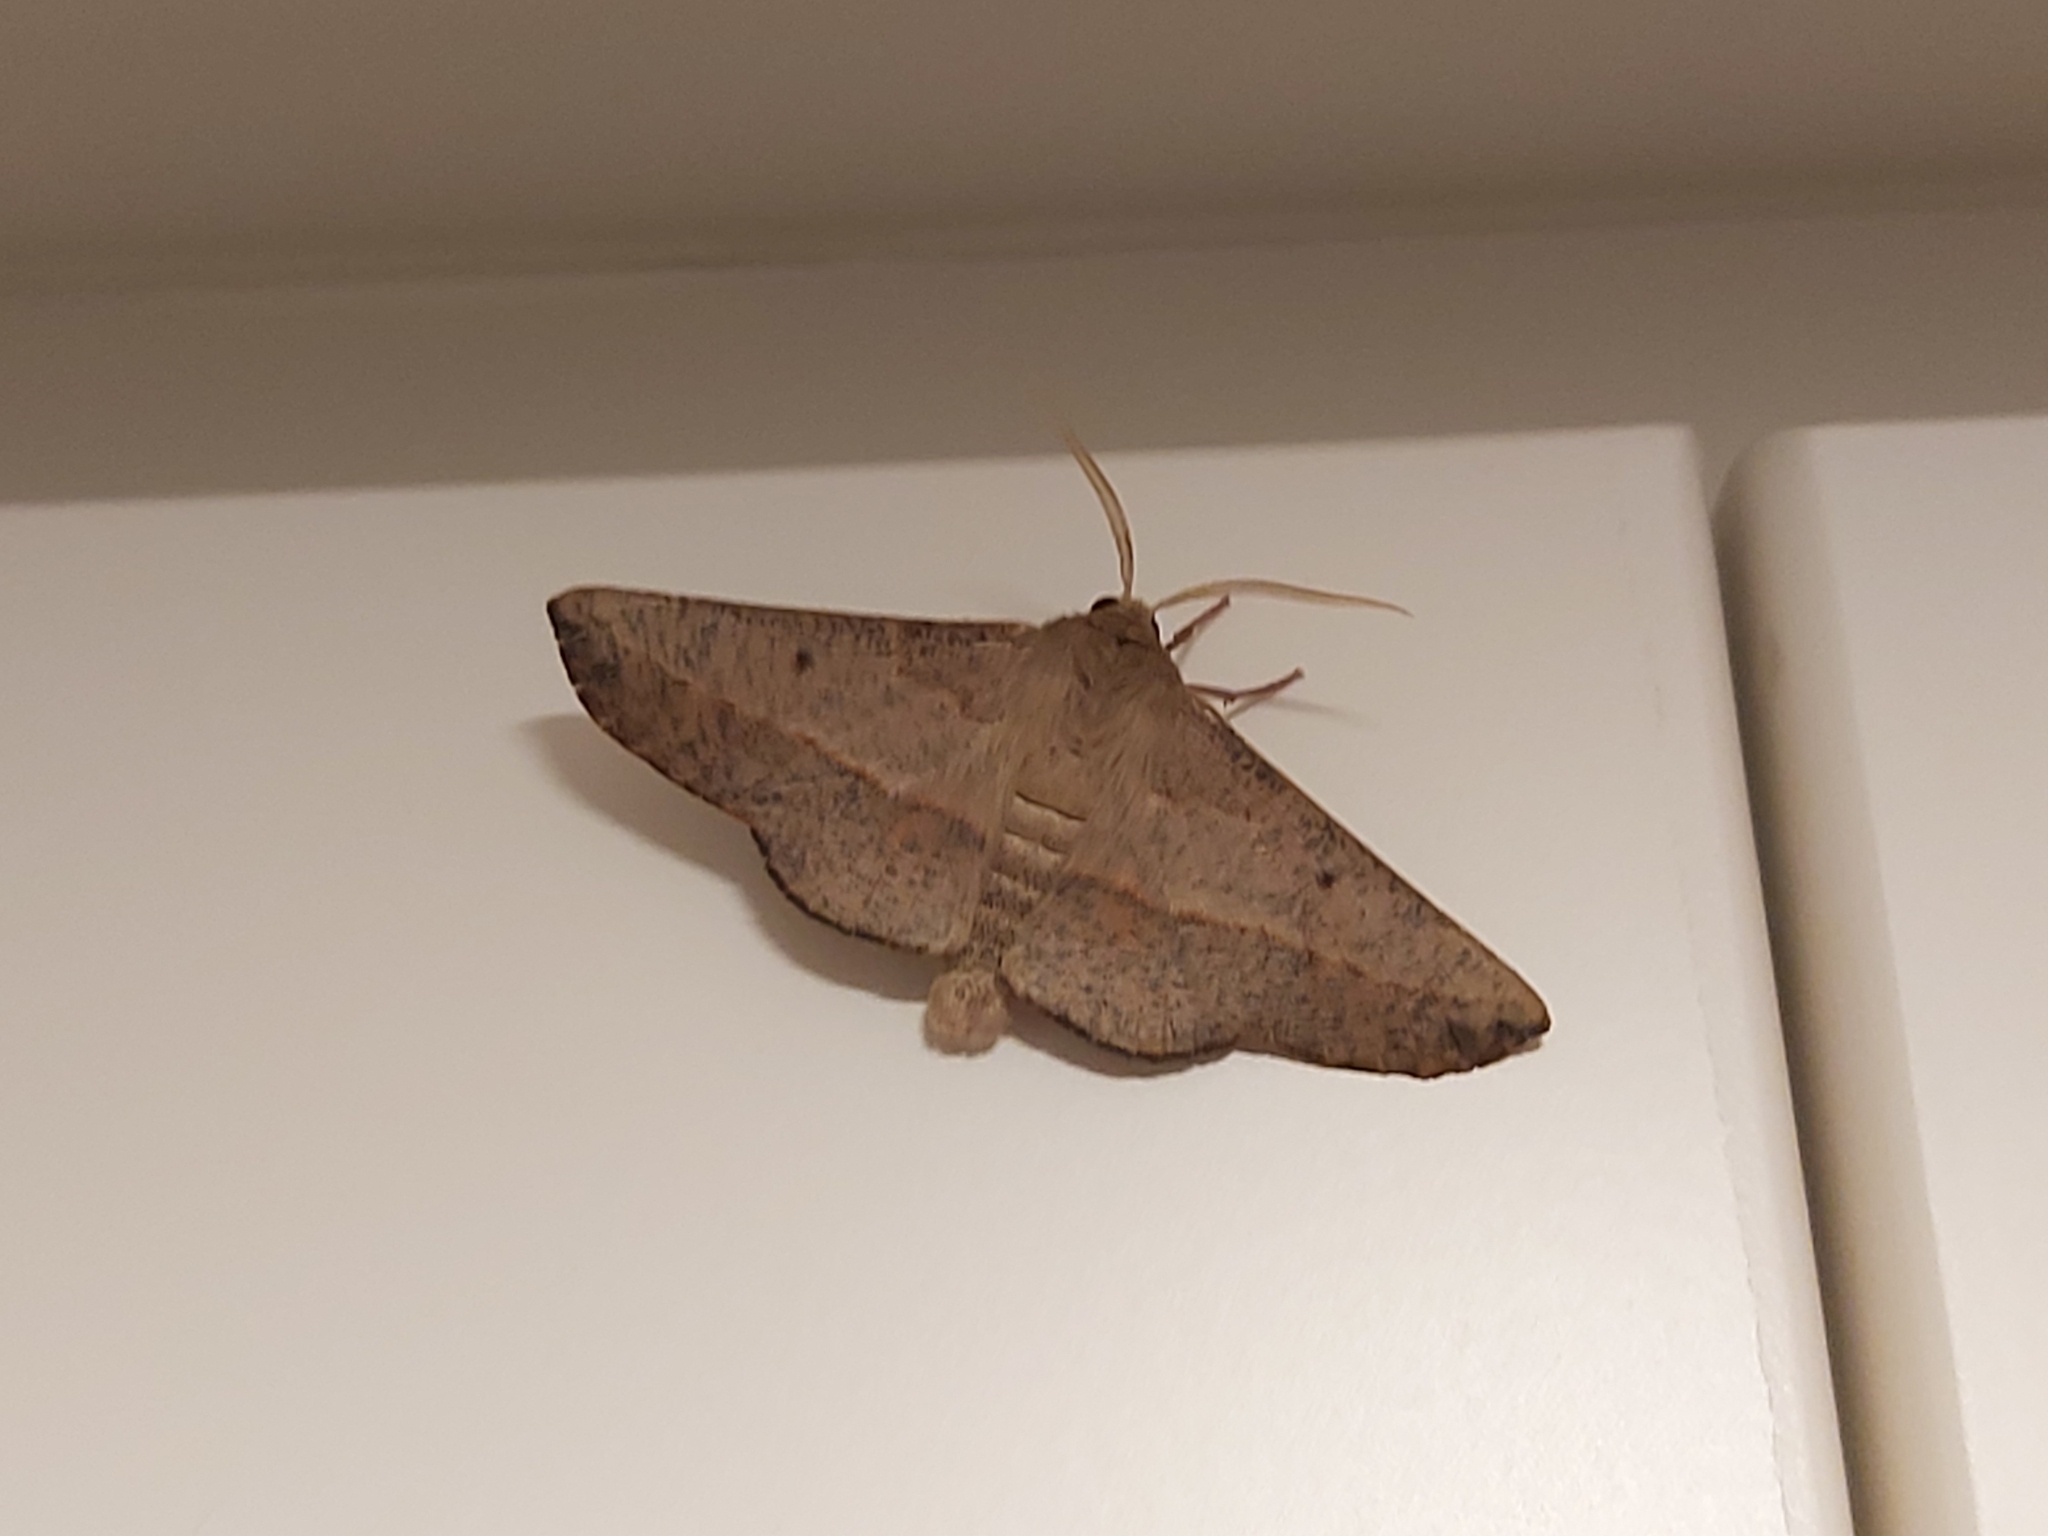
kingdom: Animalia
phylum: Arthropoda
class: Insecta
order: Lepidoptera
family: Geometridae
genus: Antictenia
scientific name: Antictenia punctunculus
